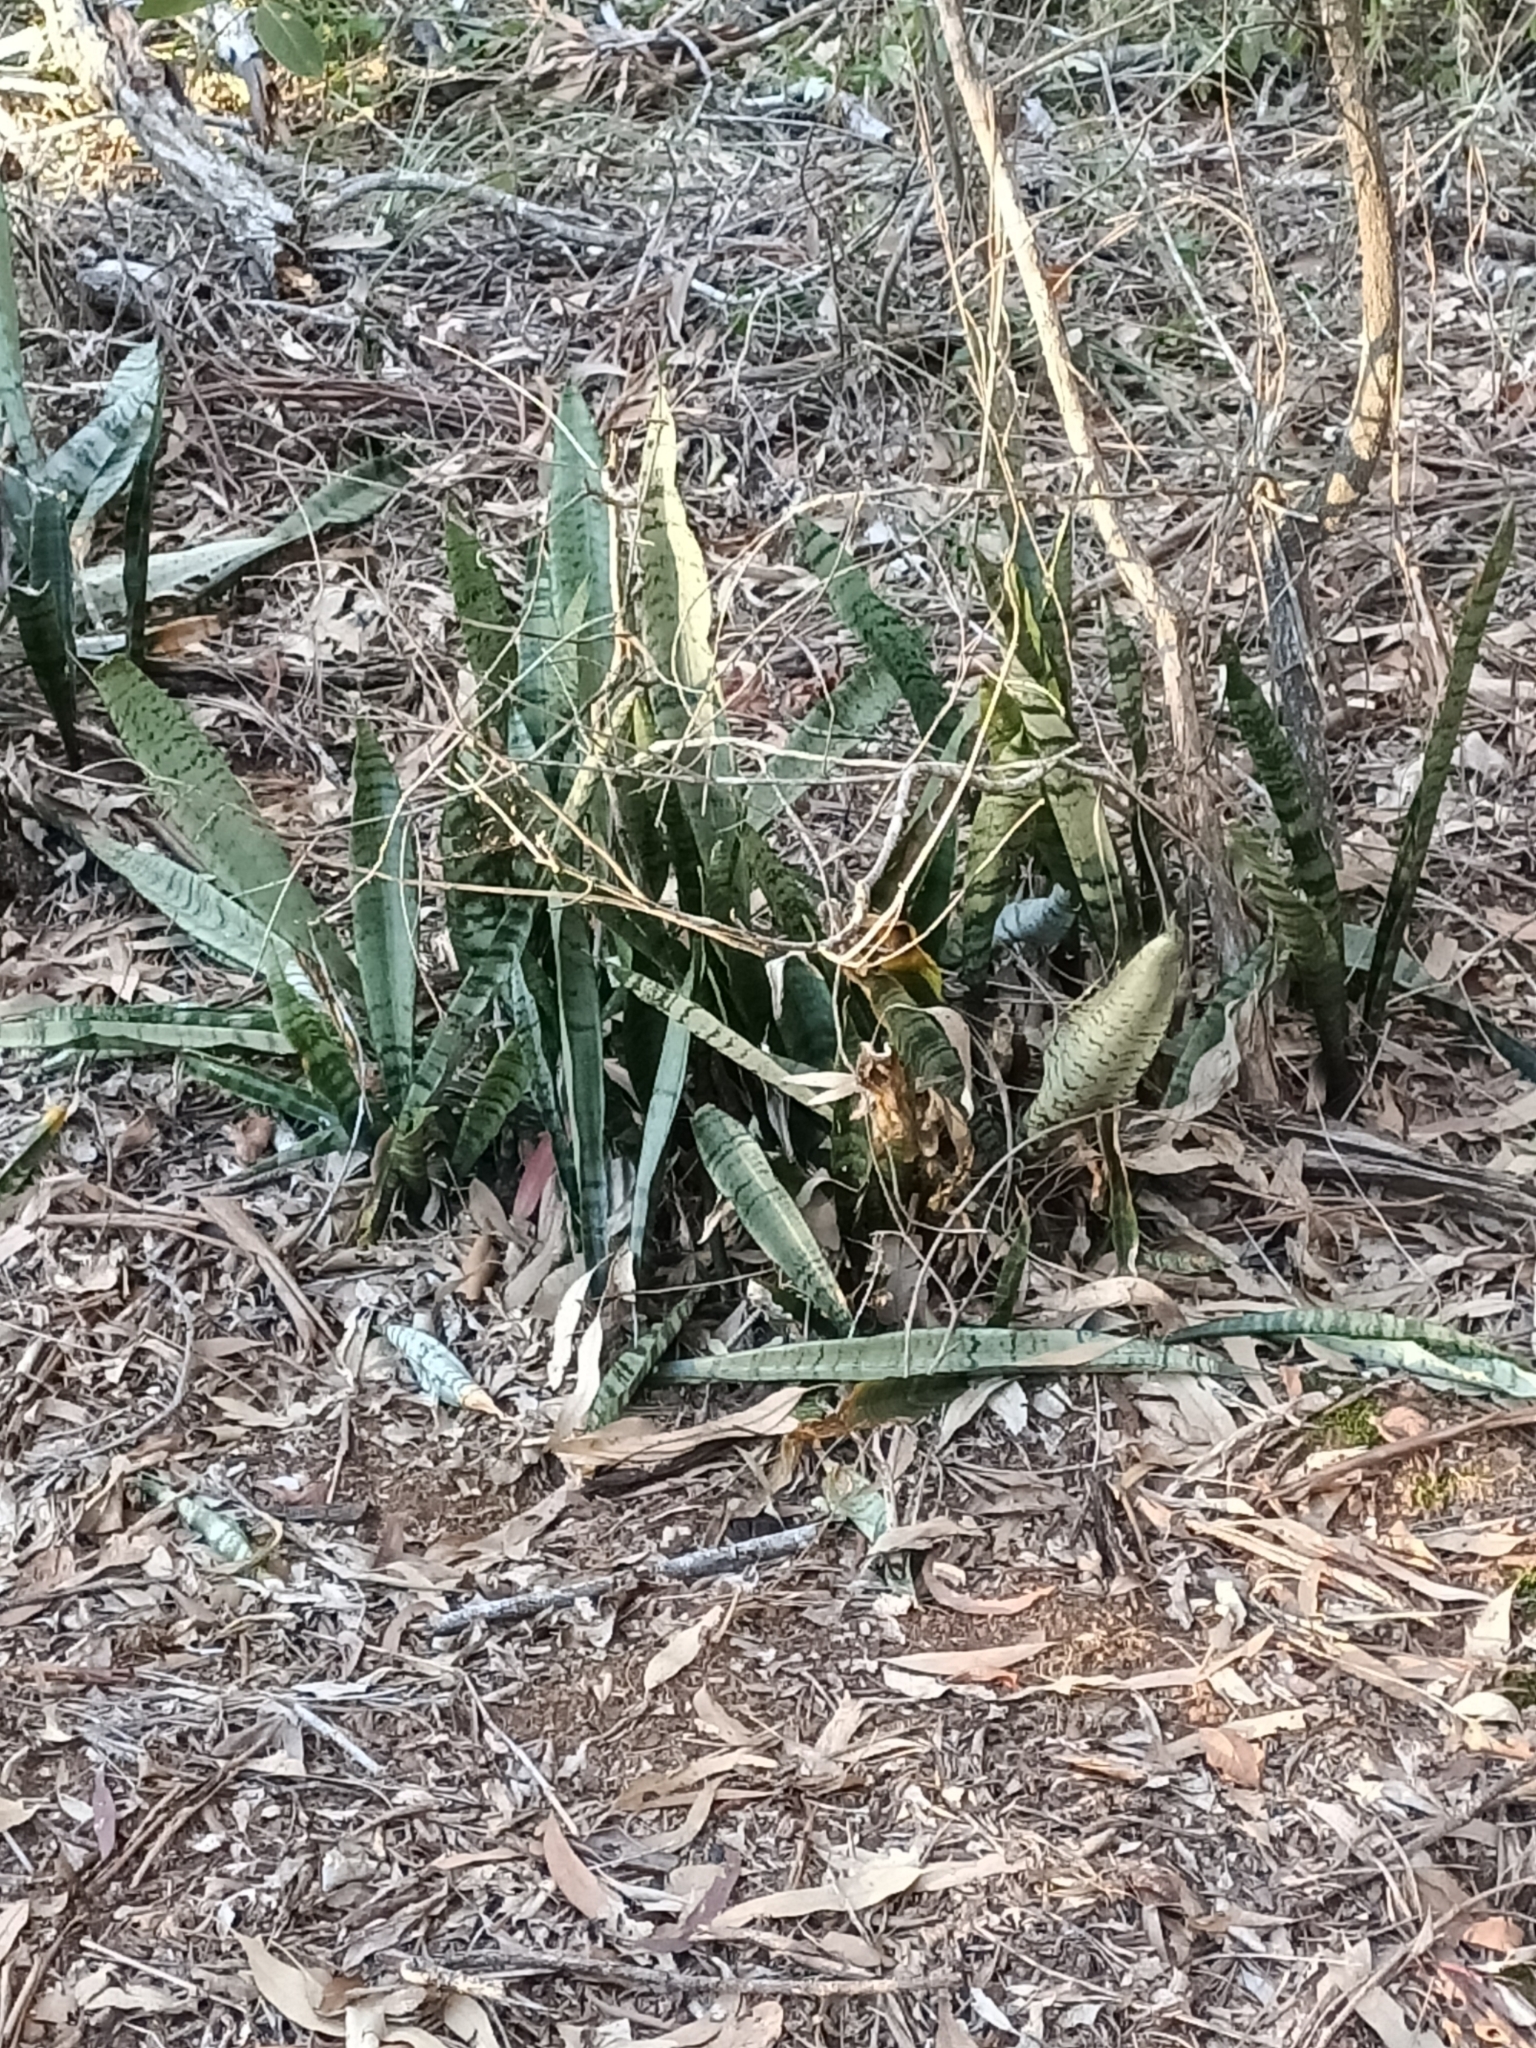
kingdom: Plantae
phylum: Tracheophyta
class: Liliopsida
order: Asparagales
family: Asparagaceae
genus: Dracaena
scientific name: Dracaena trifasciata
